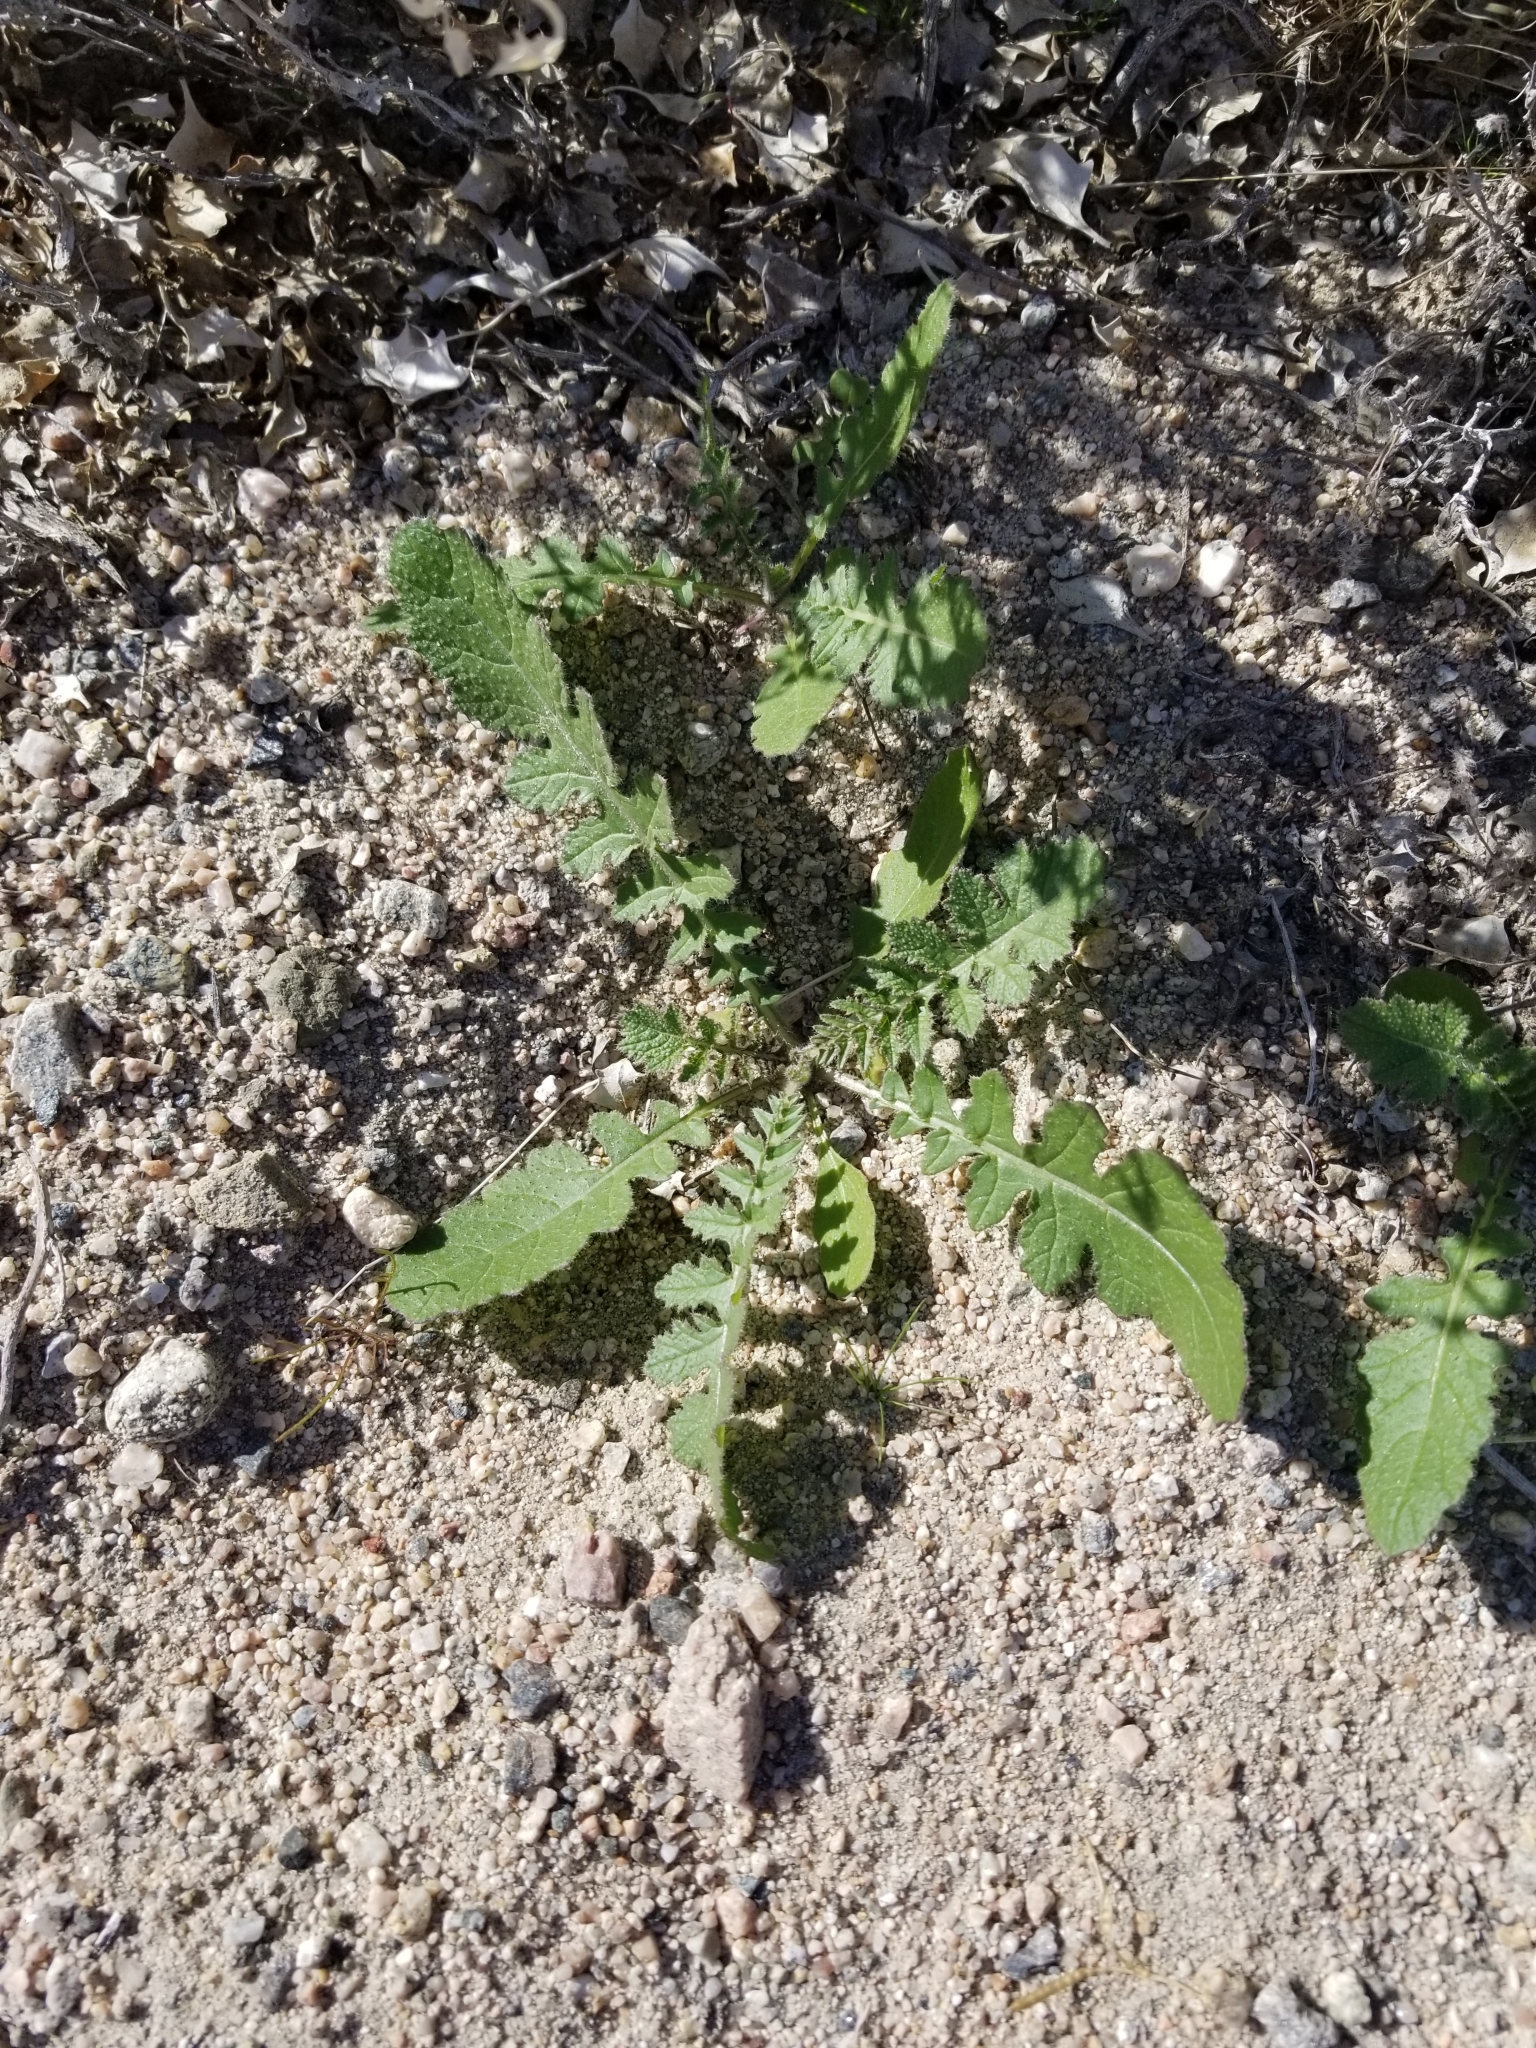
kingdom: Plantae
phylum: Tracheophyta
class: Magnoliopsida
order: Brassicales
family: Brassicaceae
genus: Brassica
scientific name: Brassica tournefortii
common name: Pale cabbage
